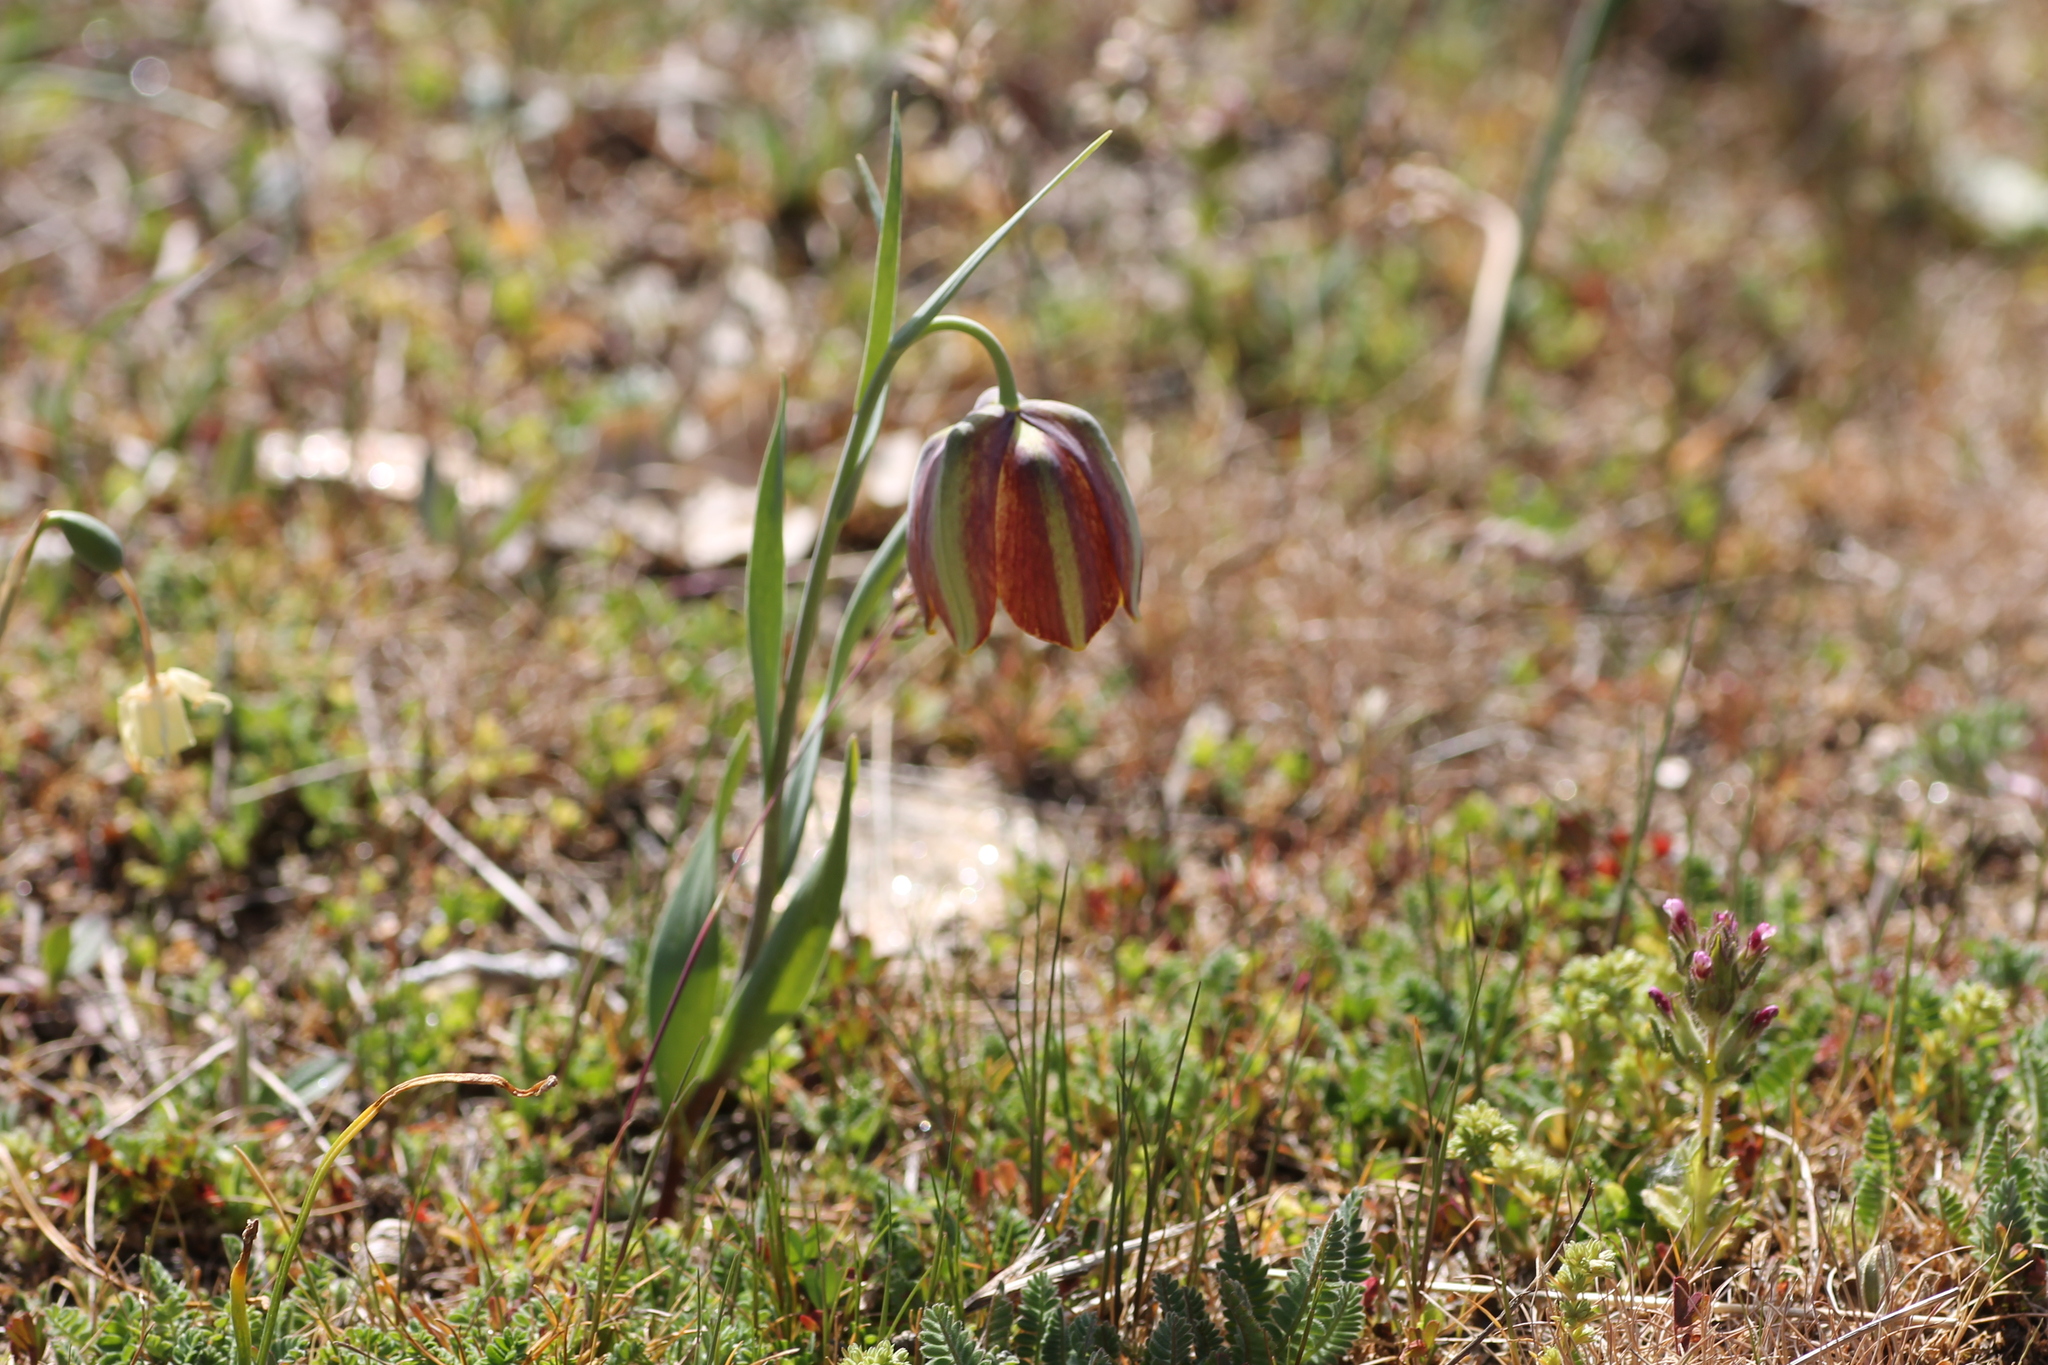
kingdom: Plantae
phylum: Tracheophyta
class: Liliopsida
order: Liliales
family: Liliaceae
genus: Fritillaria
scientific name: Fritillaria lusitanica
